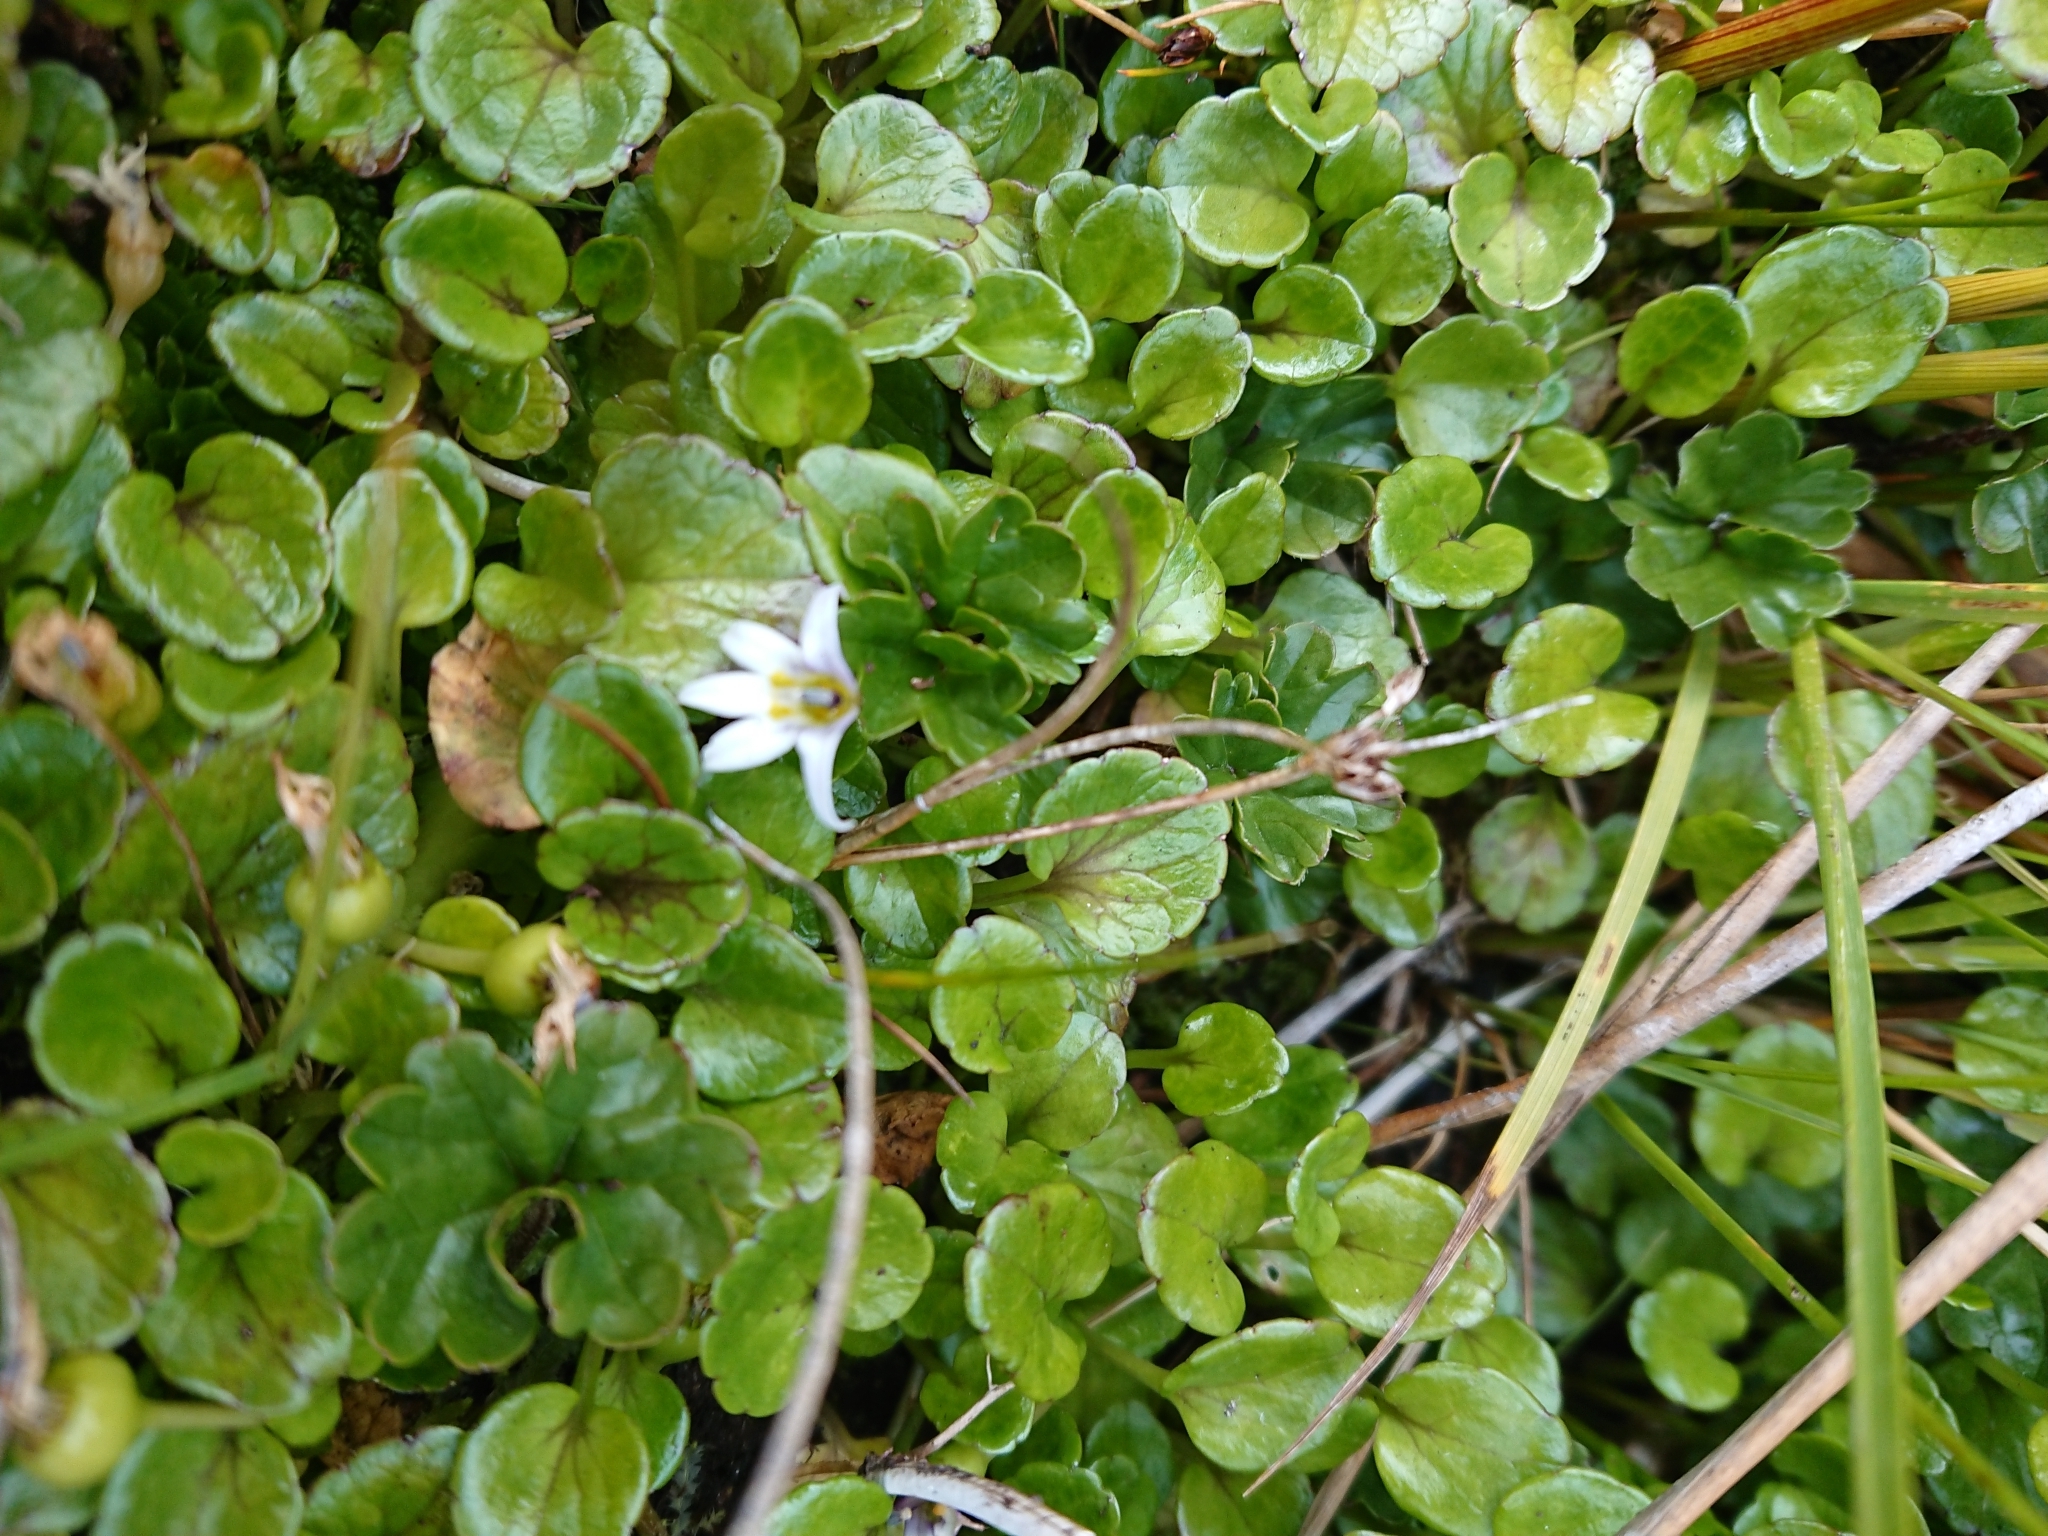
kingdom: Plantae
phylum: Tracheophyta
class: Magnoliopsida
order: Asterales
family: Campanulaceae
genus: Lobelia
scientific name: Lobelia pratiana
